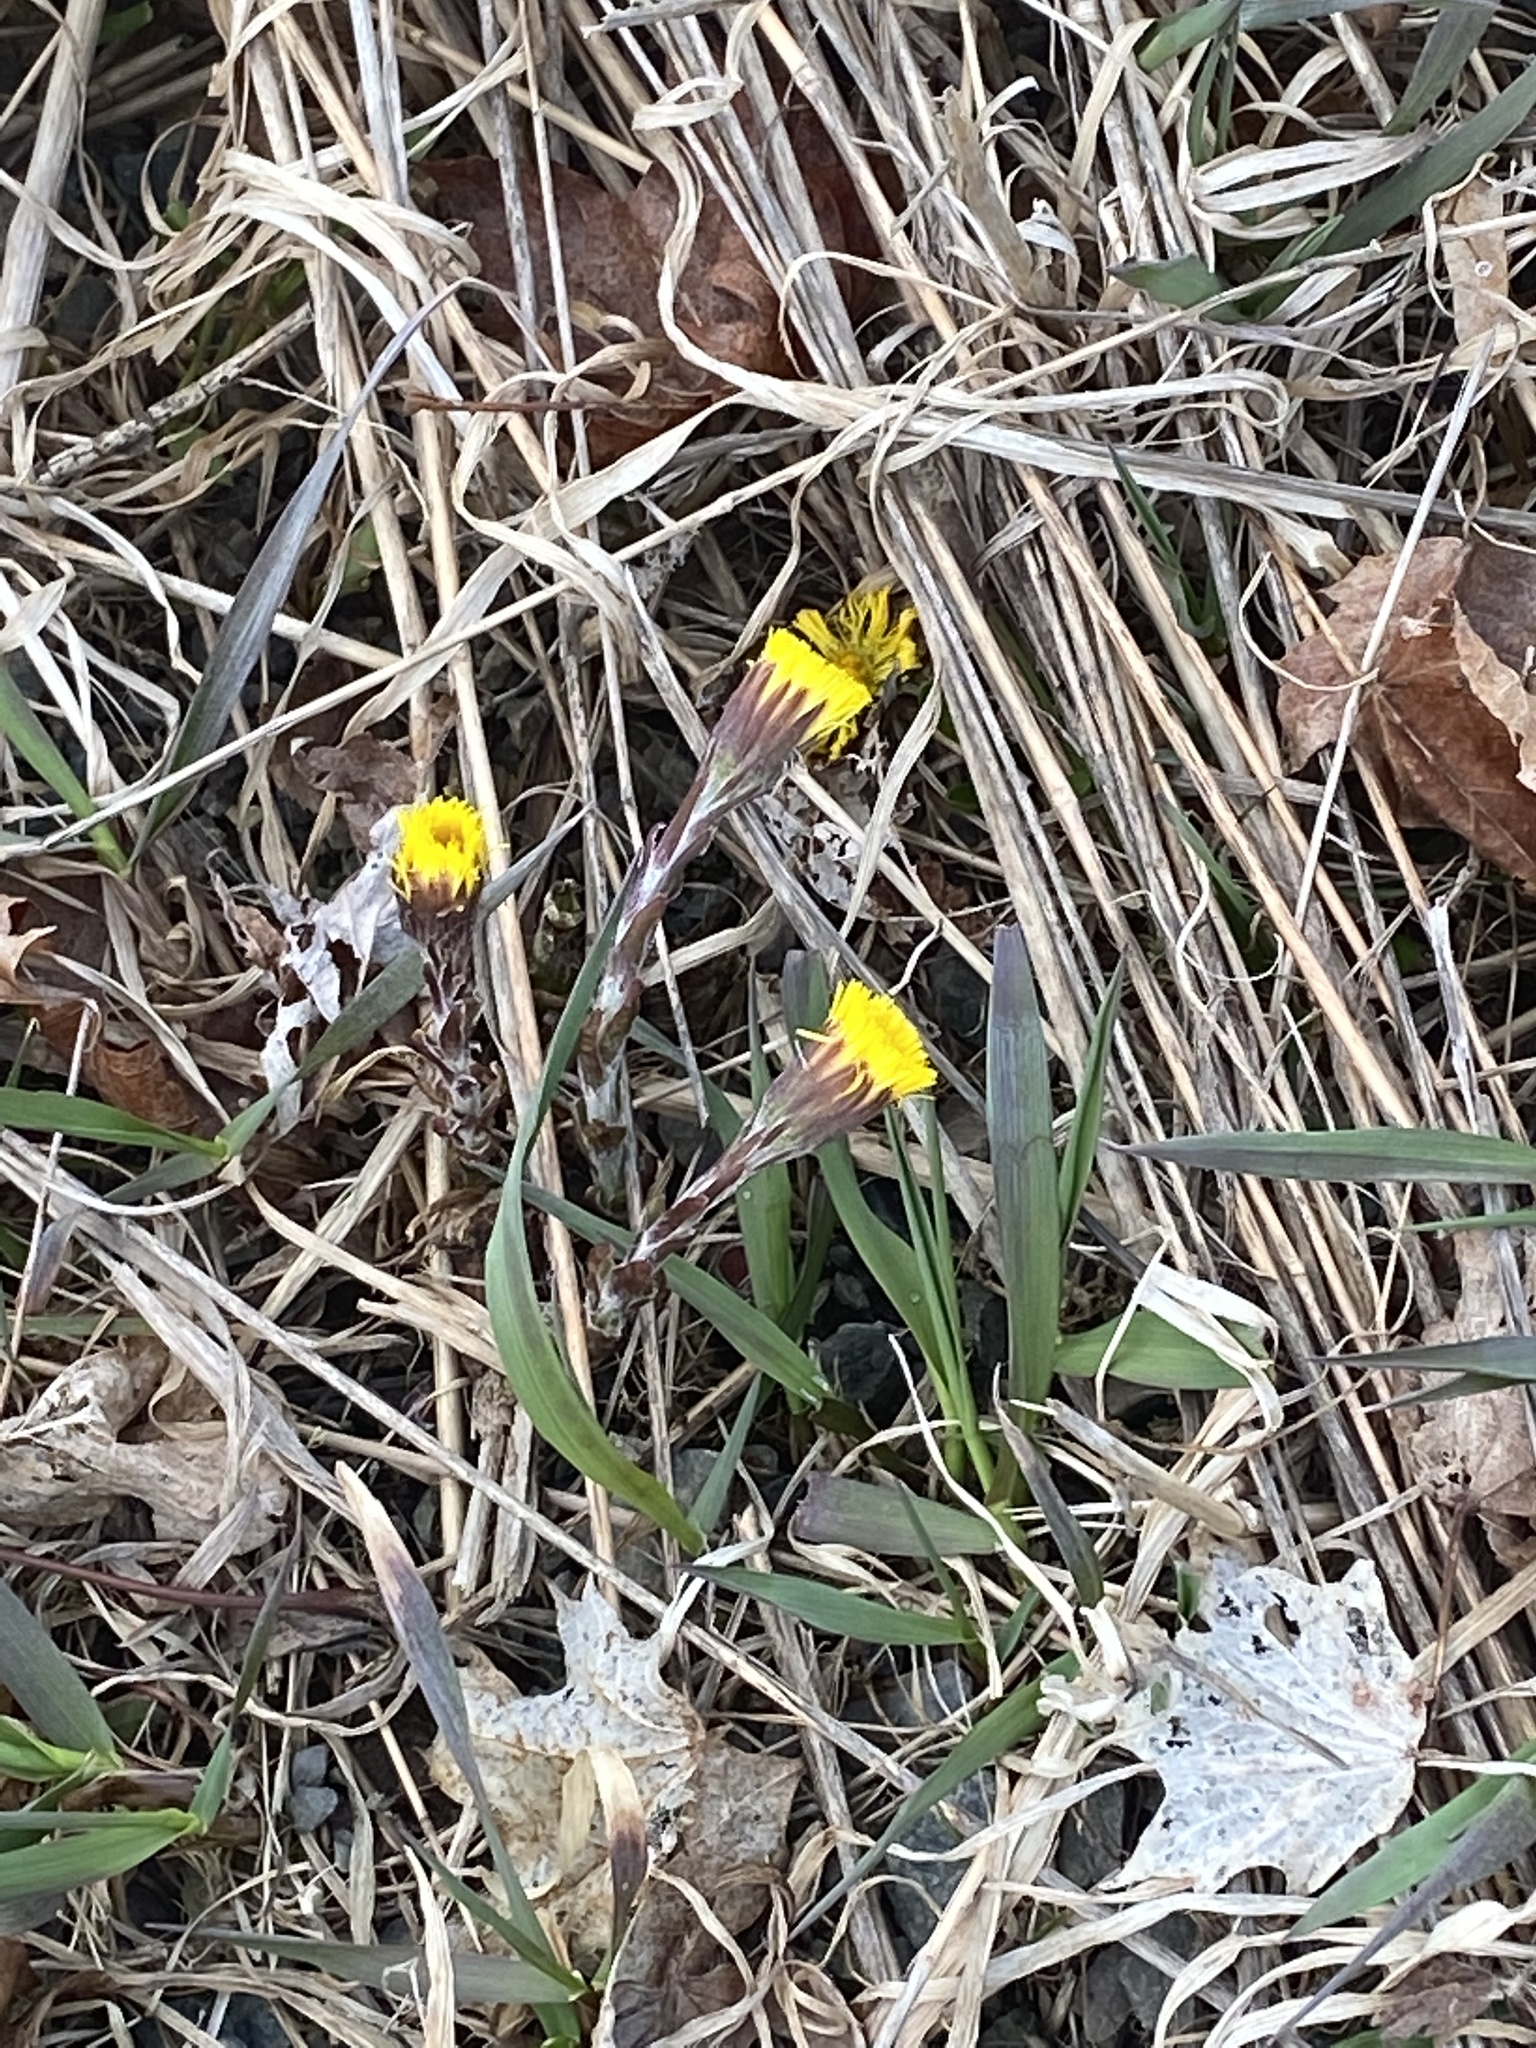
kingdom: Plantae
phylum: Tracheophyta
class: Magnoliopsida
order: Asterales
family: Asteraceae
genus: Tussilago
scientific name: Tussilago farfara
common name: Coltsfoot
